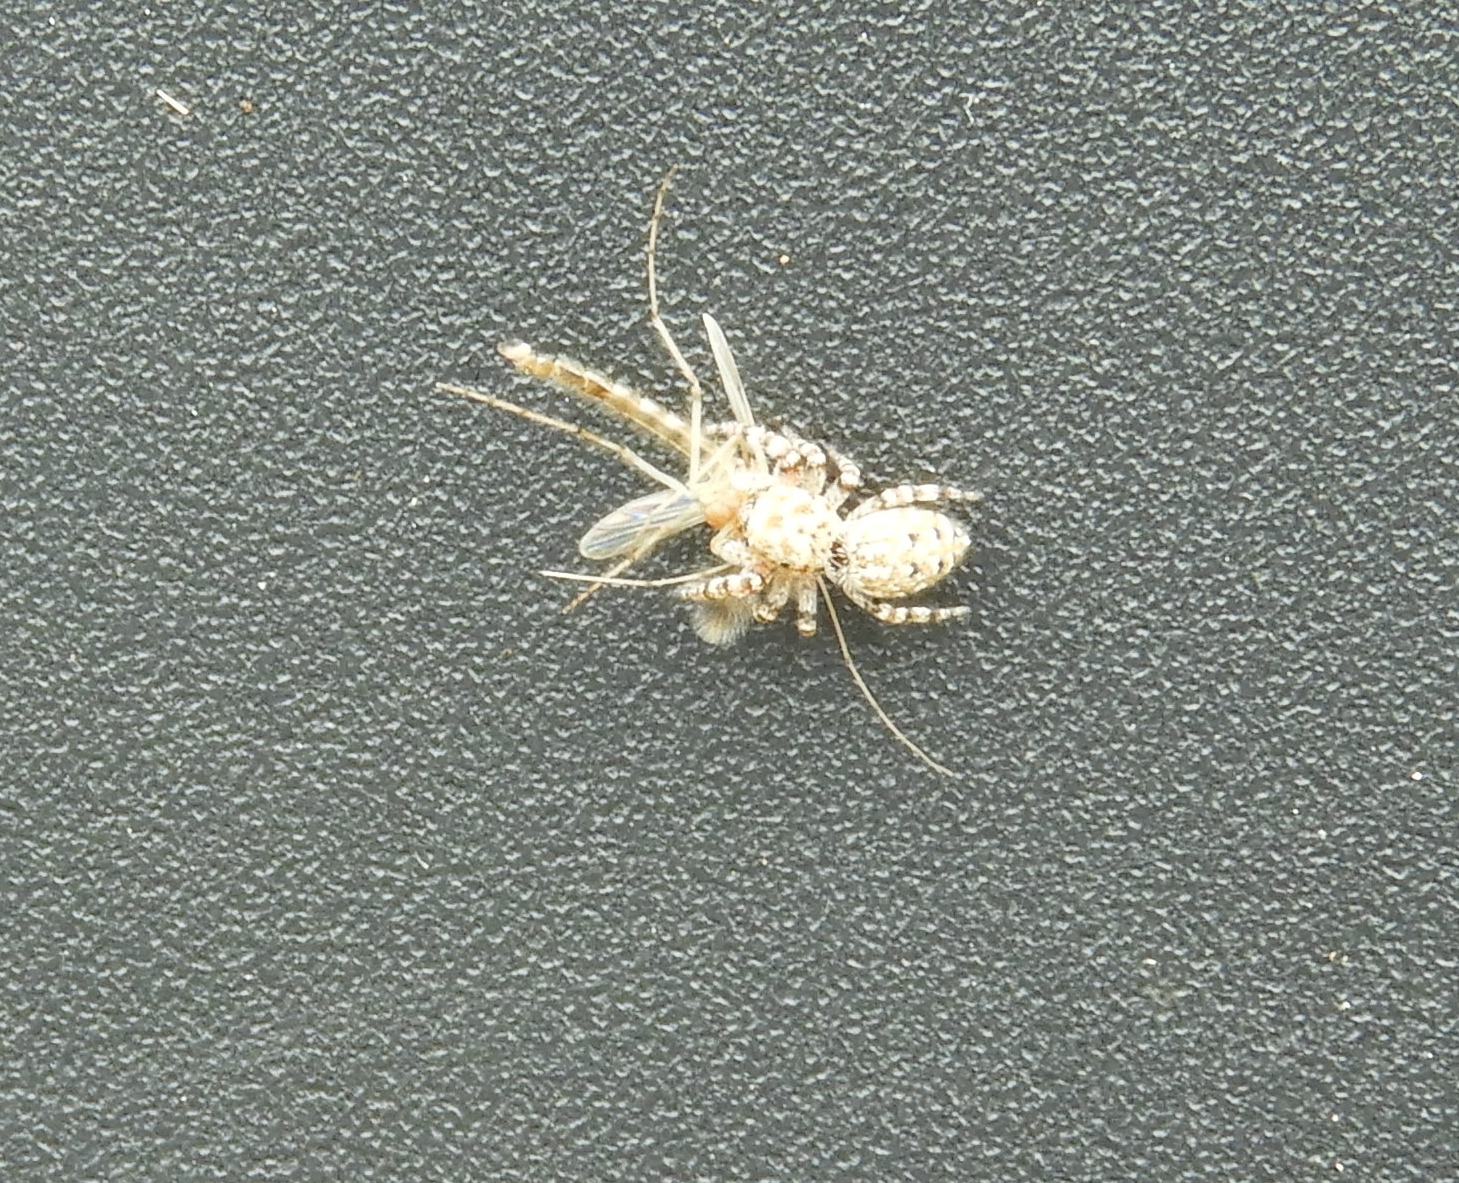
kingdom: Animalia
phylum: Arthropoda
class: Arachnida
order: Araneae
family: Salticidae
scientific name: Salticidae
